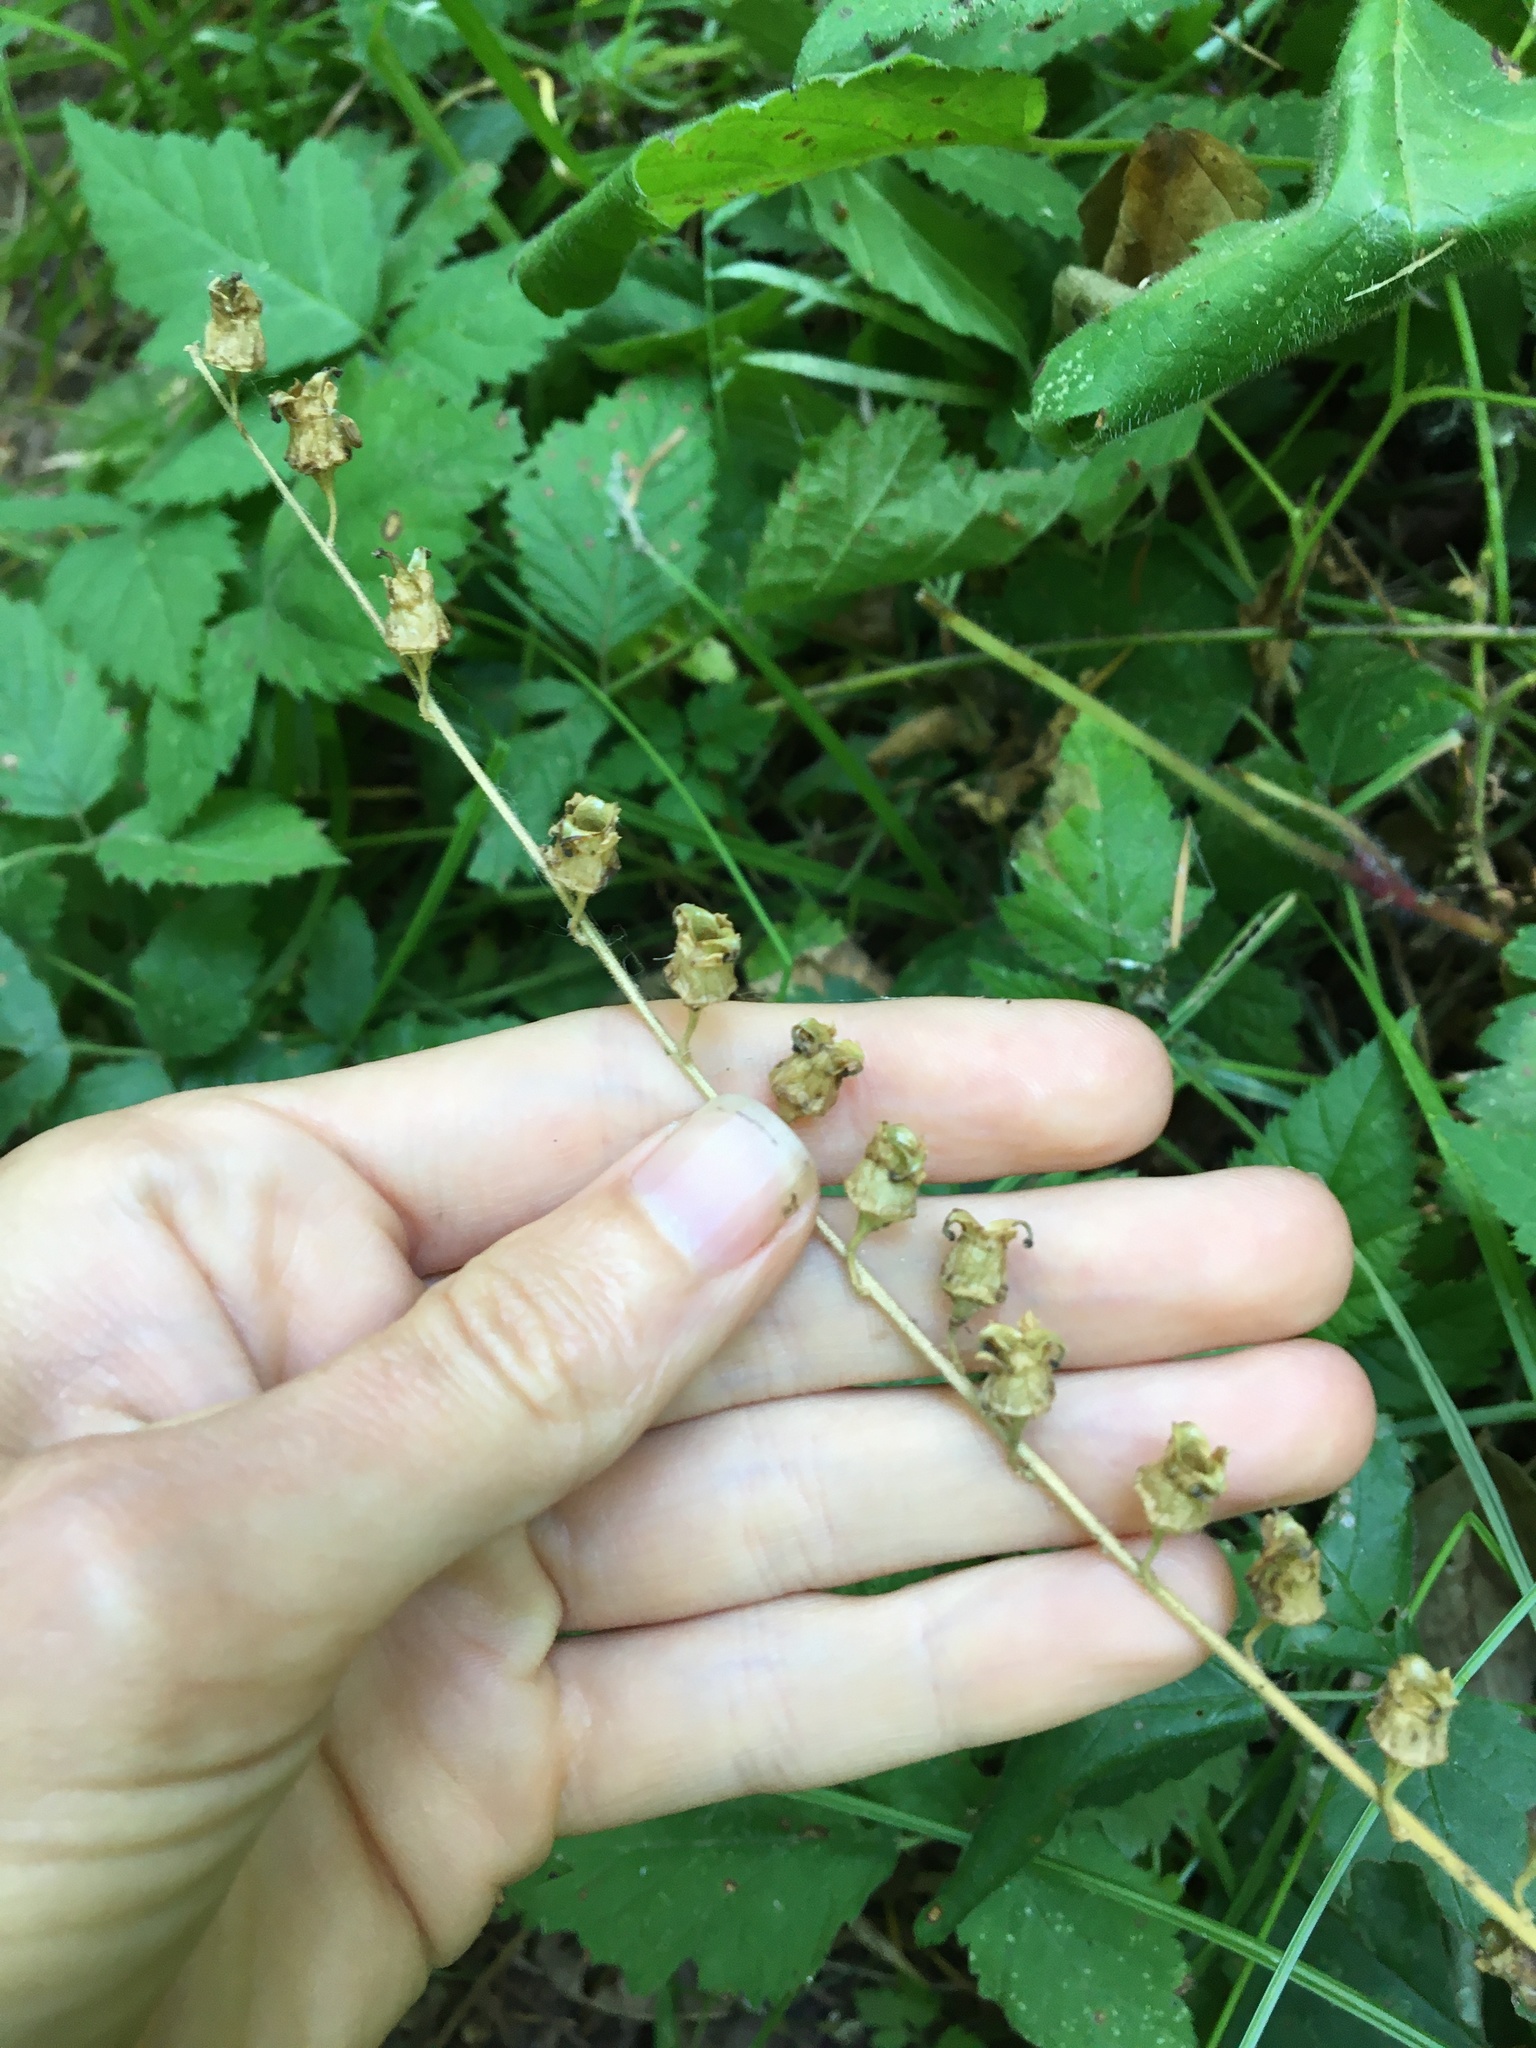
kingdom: Plantae
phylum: Tracheophyta
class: Magnoliopsida
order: Saxifragales
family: Saxifragaceae
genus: Tellima
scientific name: Tellima grandiflora
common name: Fringecups
